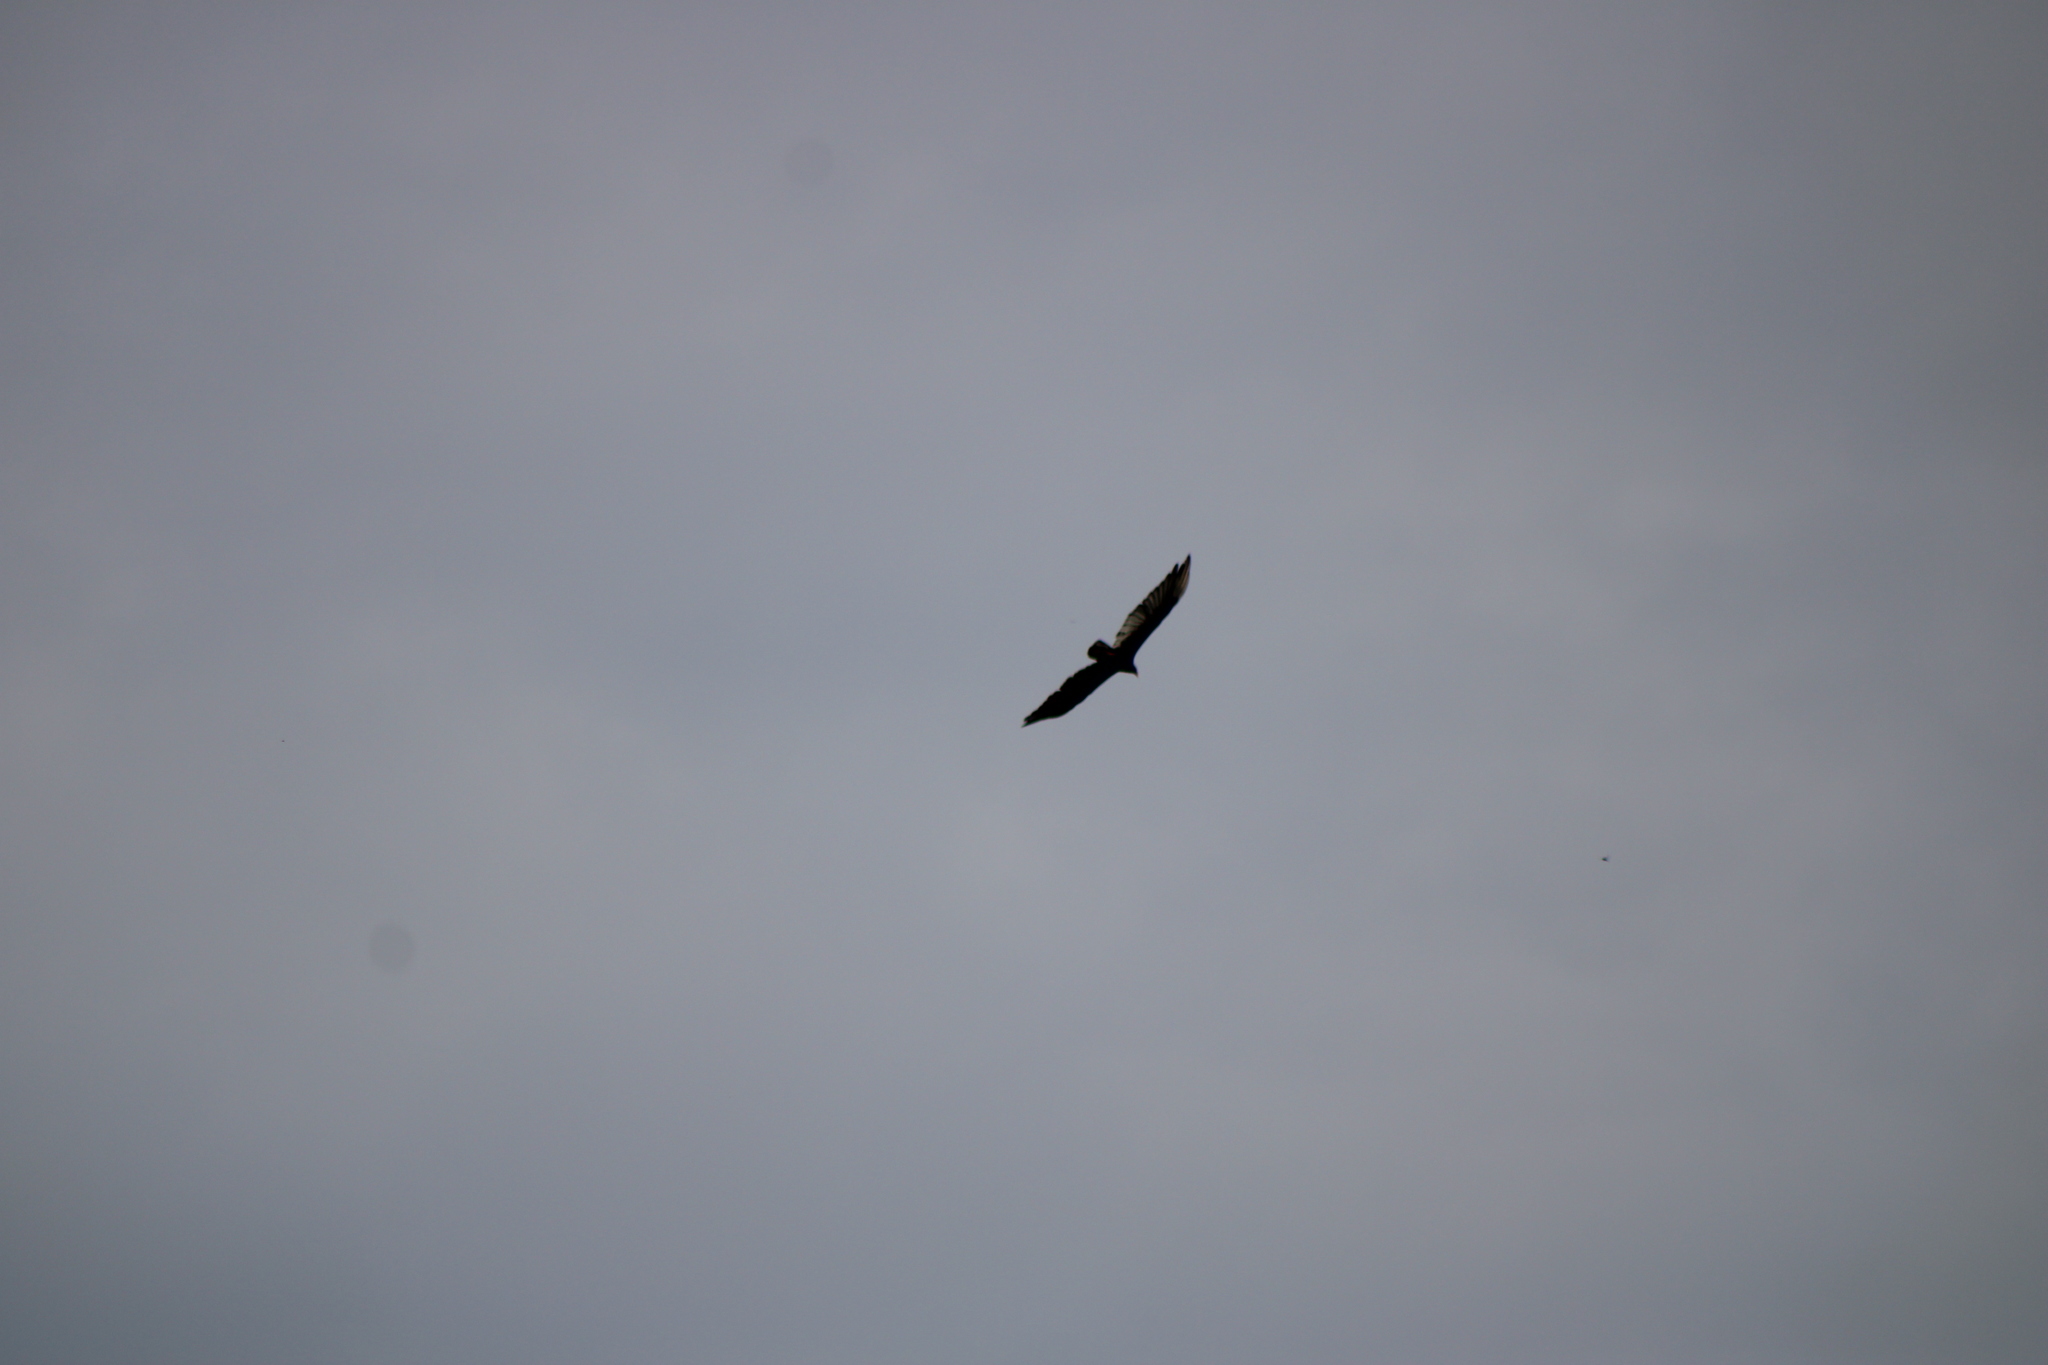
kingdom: Animalia
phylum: Chordata
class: Aves
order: Accipitriformes
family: Cathartidae
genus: Cathartes
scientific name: Cathartes aura
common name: Turkey vulture
